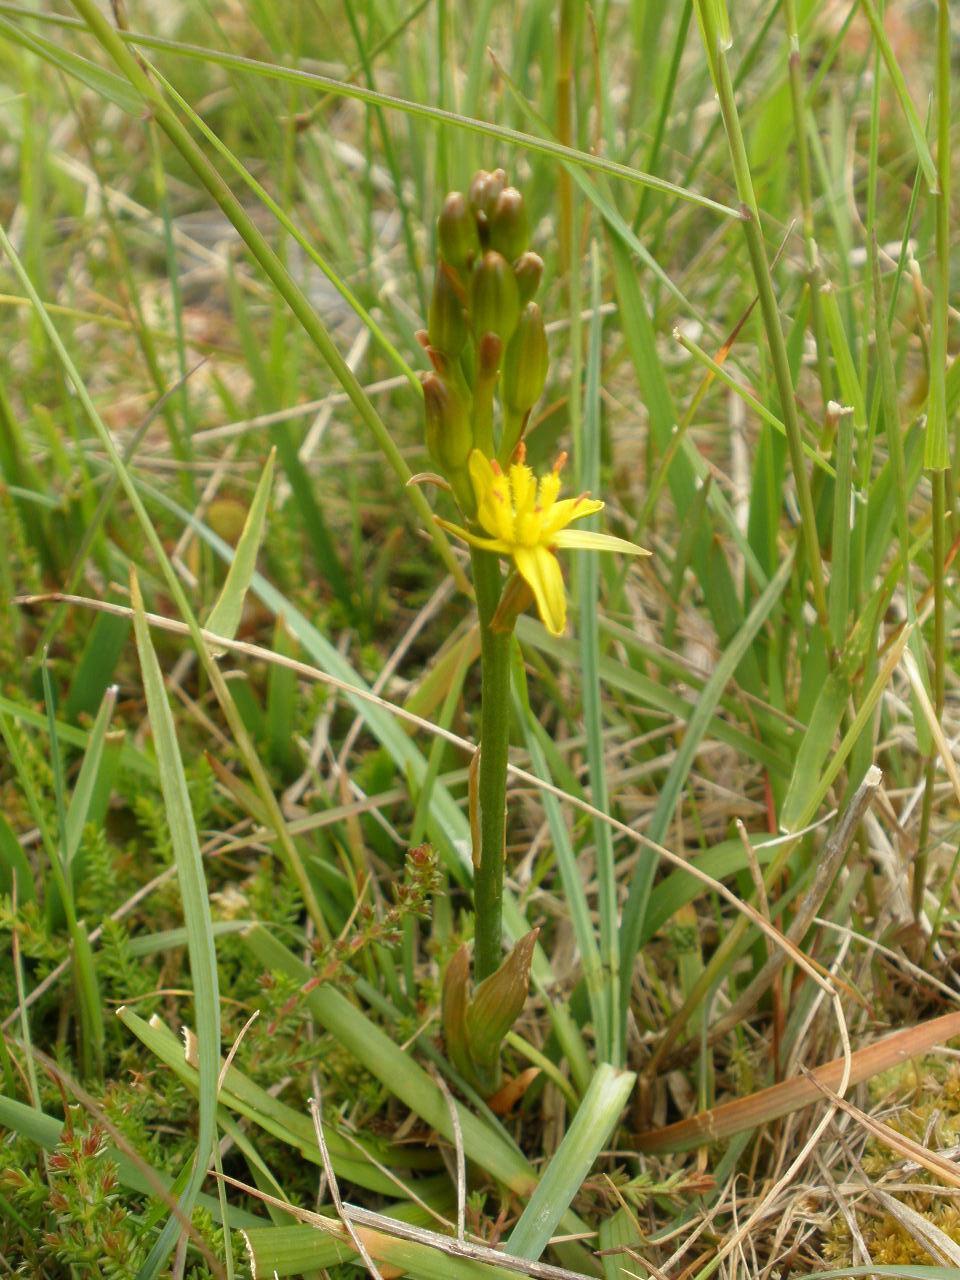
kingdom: Plantae
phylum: Tracheophyta
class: Liliopsida
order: Dioscoreales
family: Nartheciaceae
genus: Narthecium
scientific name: Narthecium ossifragum
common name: Bog asphodel
